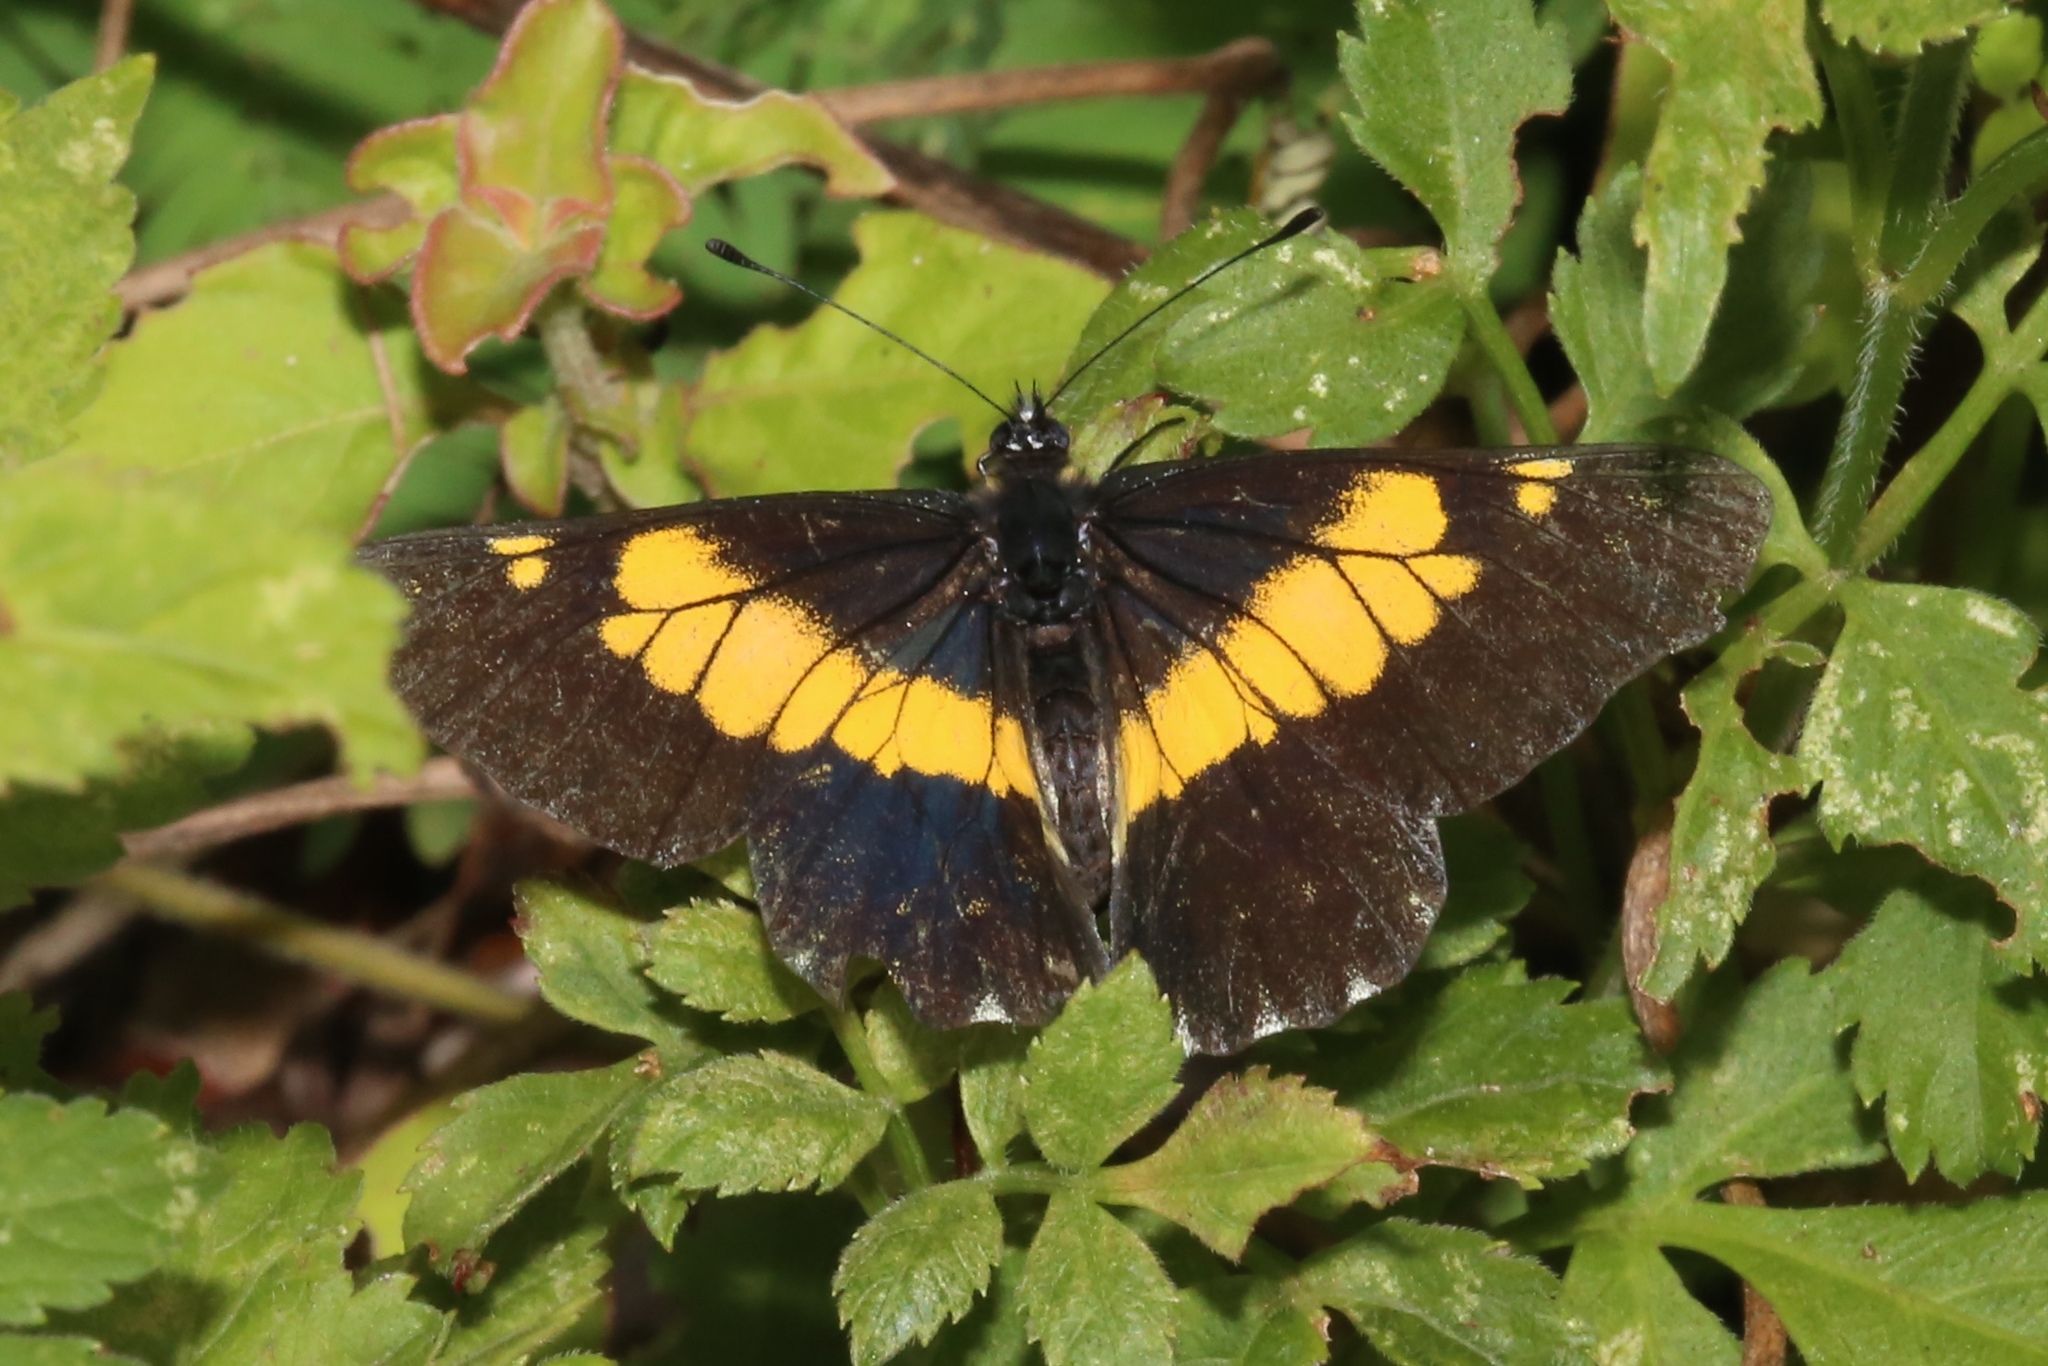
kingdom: Animalia
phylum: Arthropoda
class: Insecta
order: Lepidoptera
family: Pieridae
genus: Archonias
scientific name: Archonias teutila
